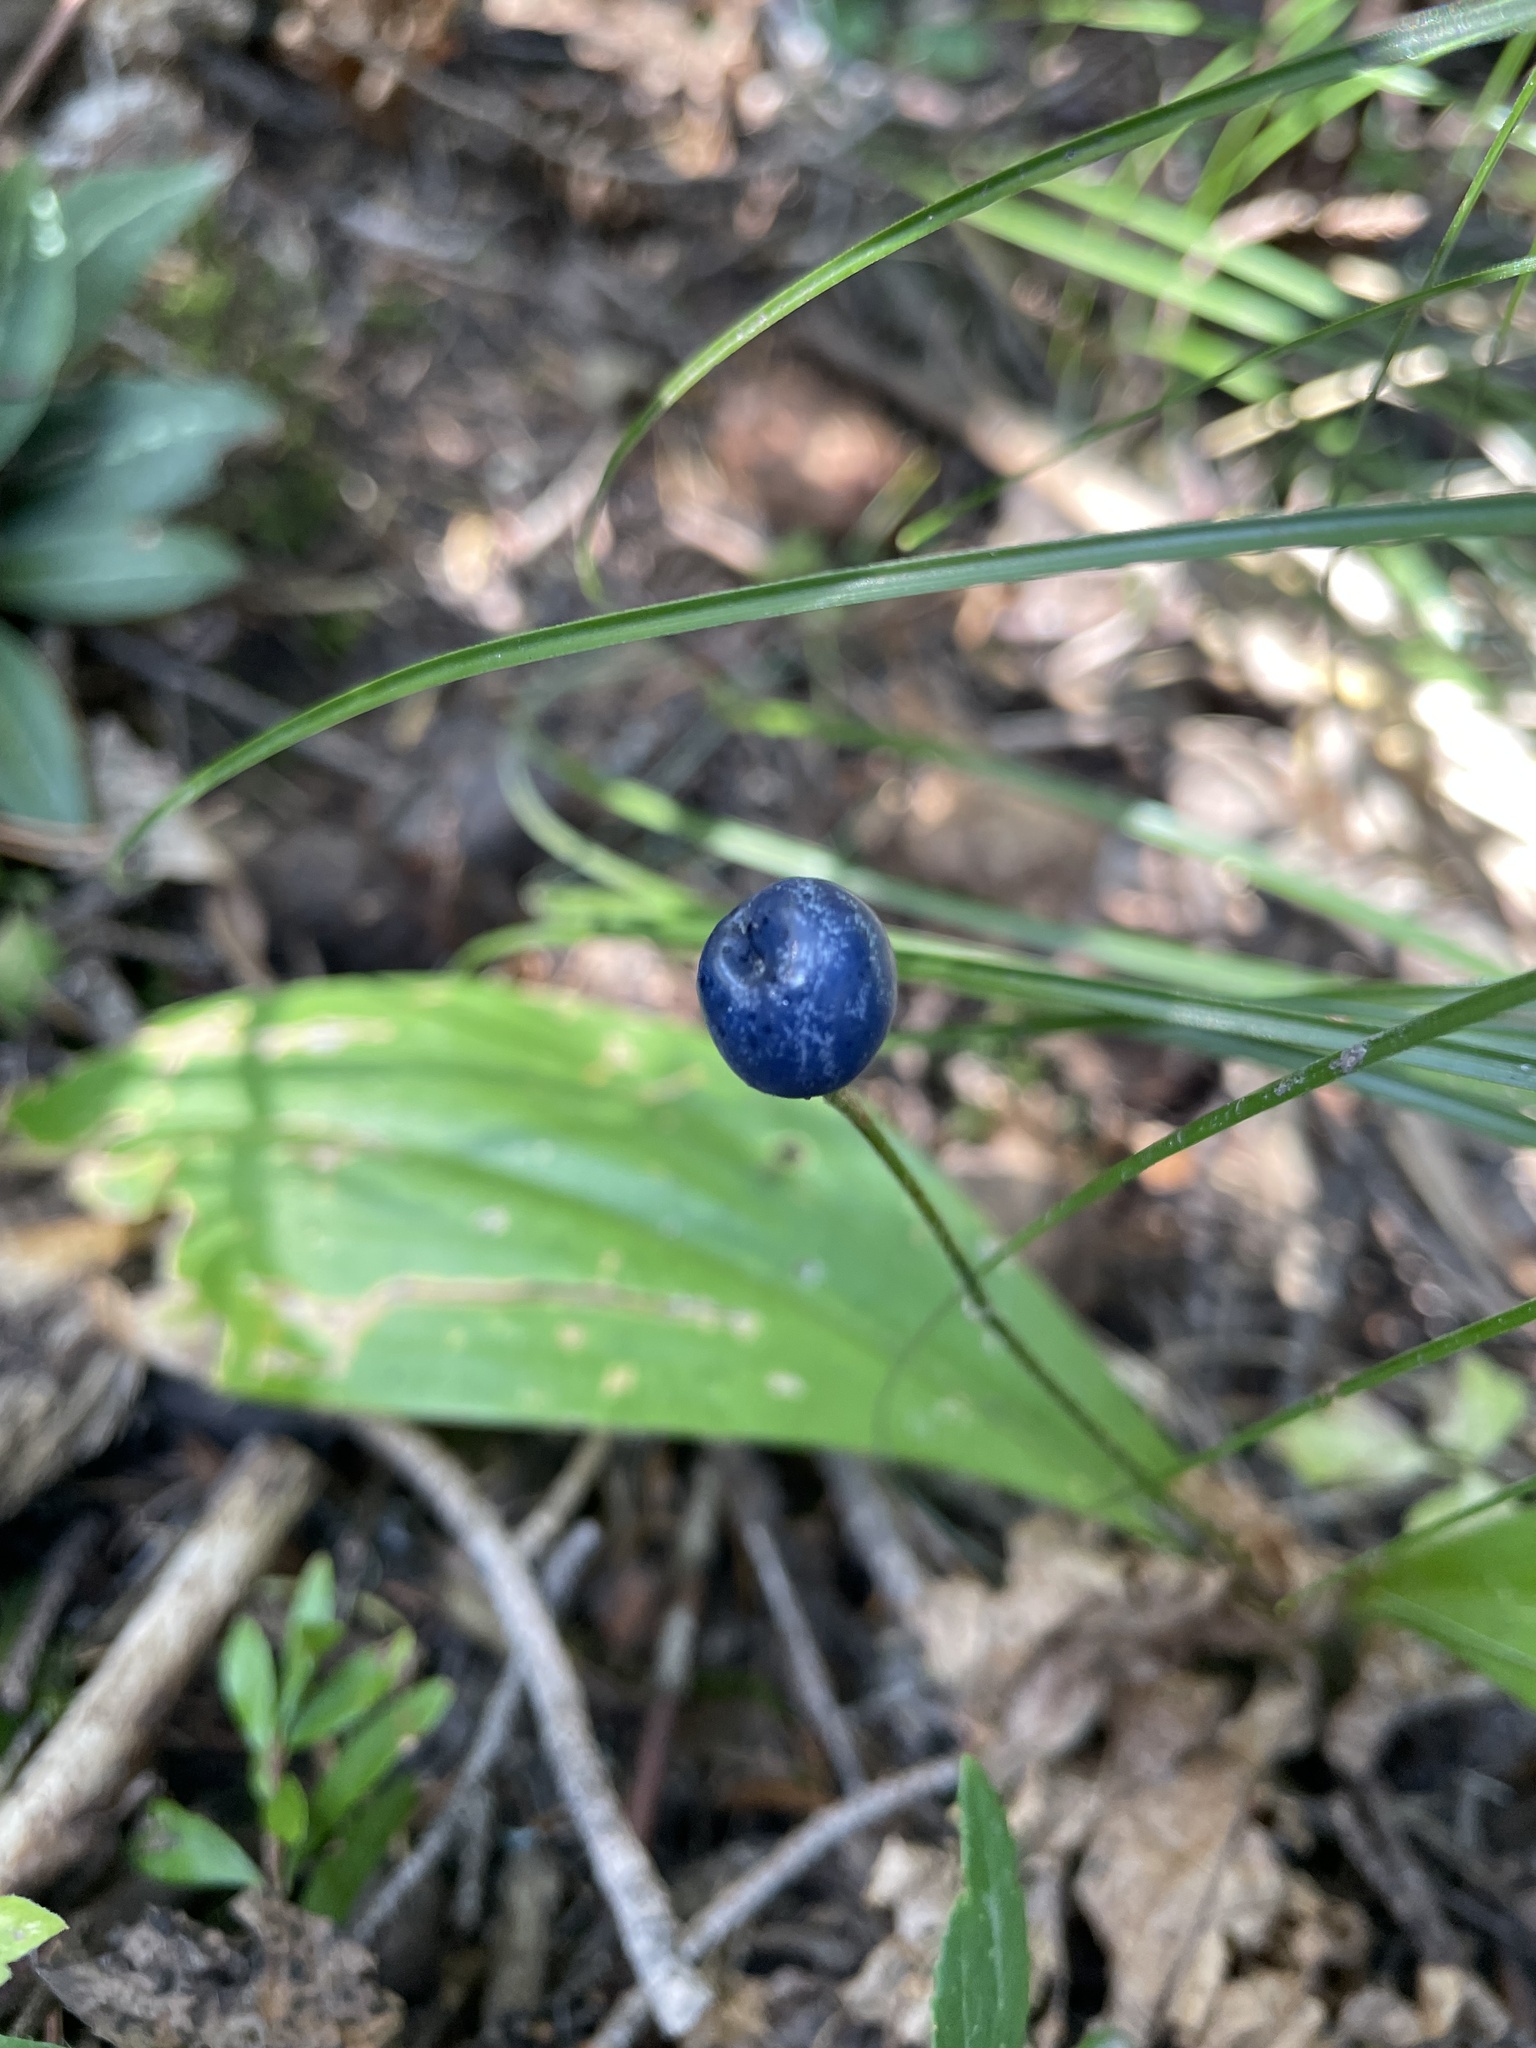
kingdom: Plantae
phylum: Tracheophyta
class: Liliopsida
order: Liliales
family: Liliaceae
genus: Clintonia
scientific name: Clintonia uniflora
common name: Queen's cup
